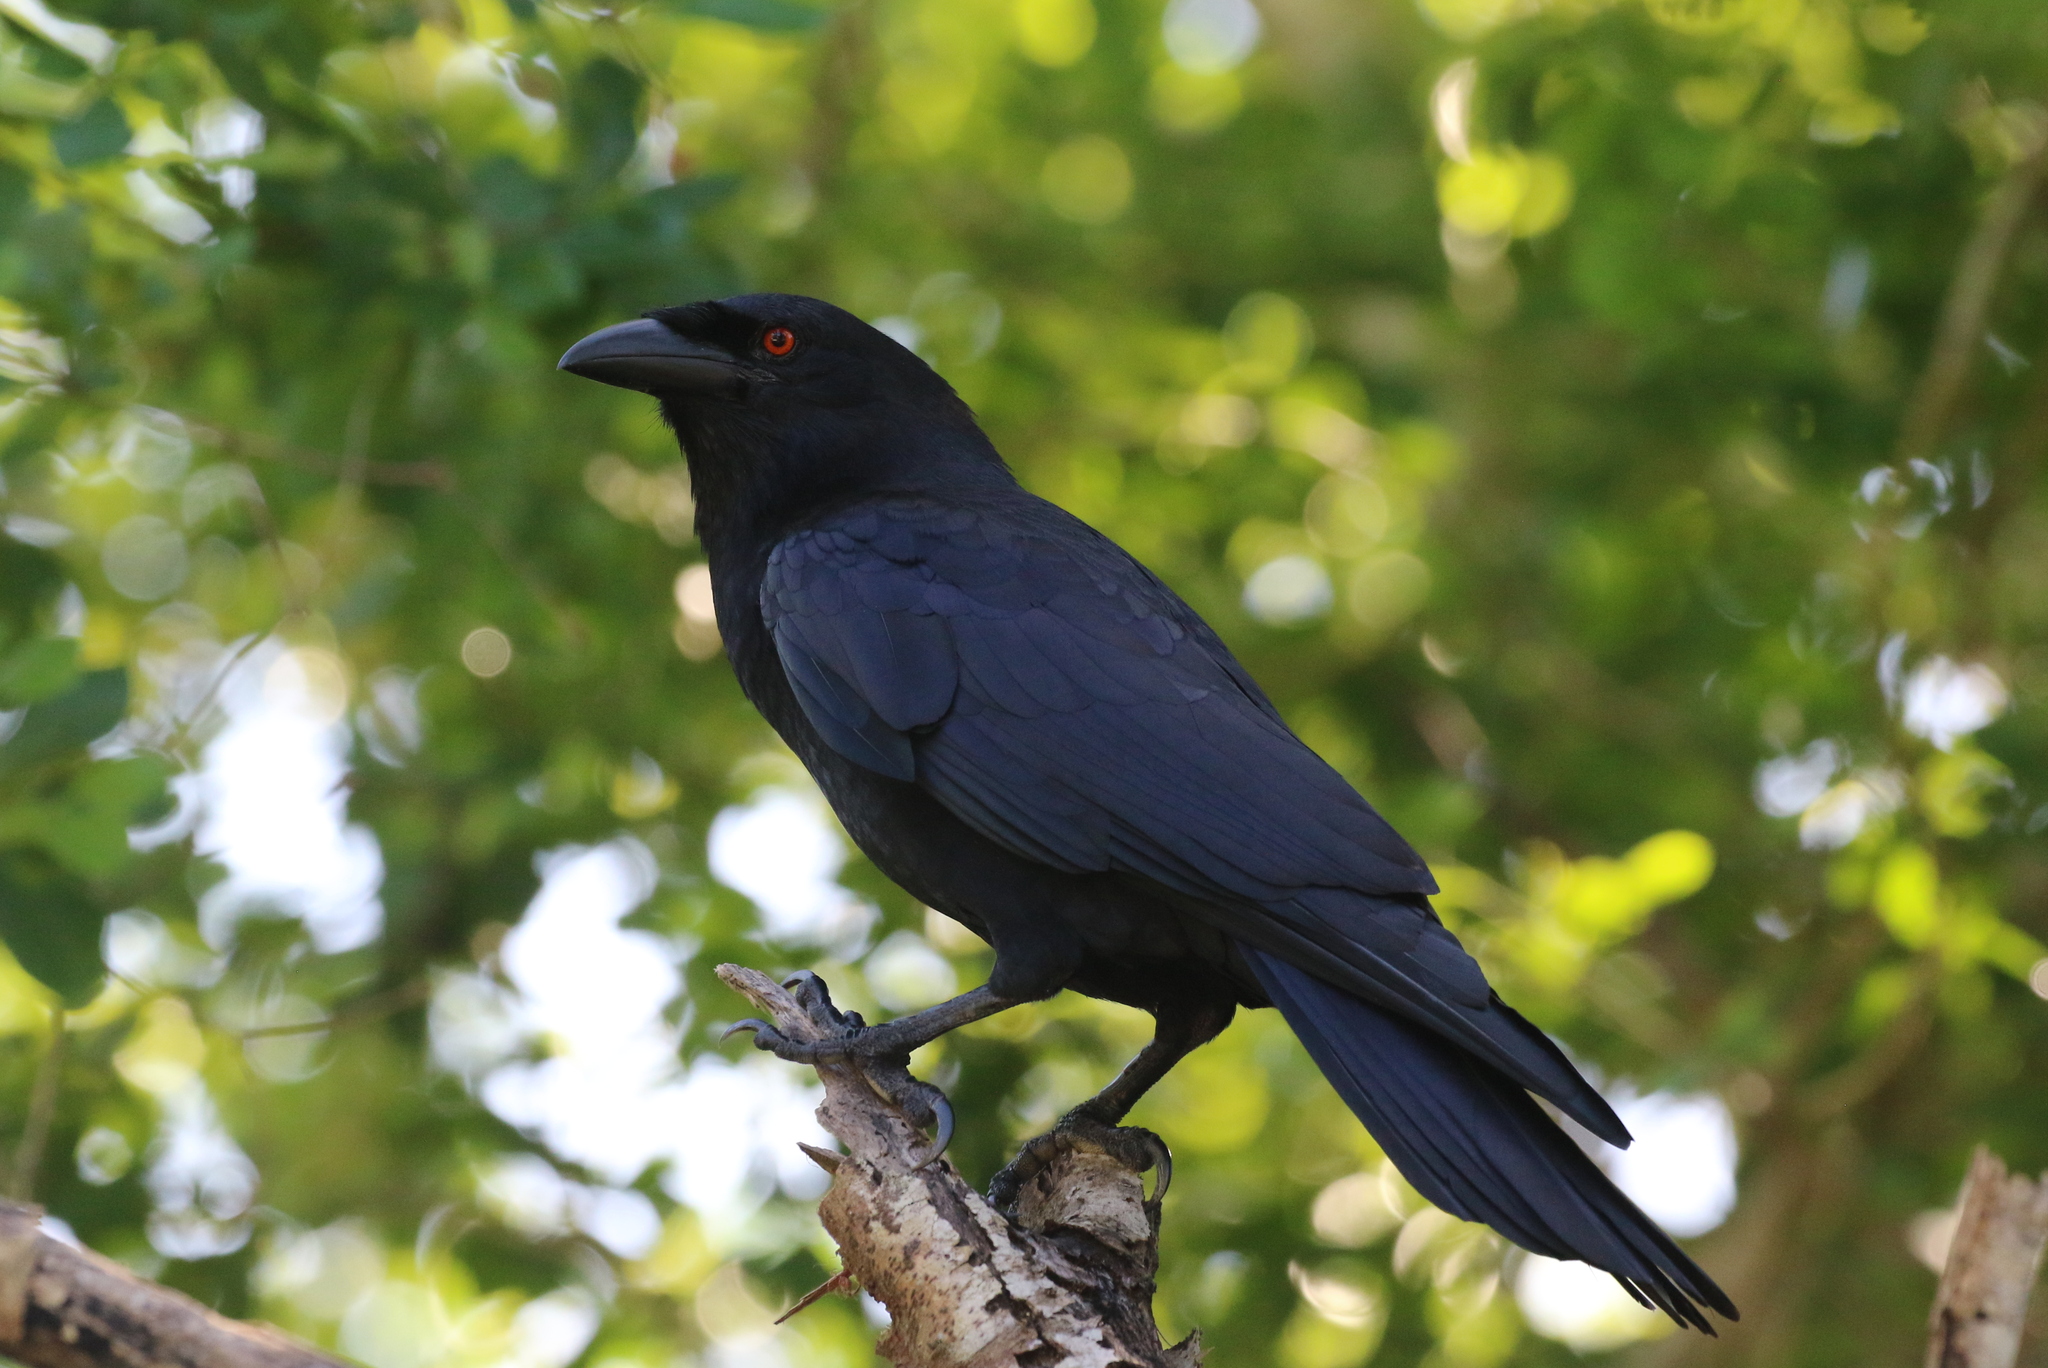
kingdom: Animalia
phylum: Chordata
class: Aves
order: Passeriformes
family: Corvidae
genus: Corvus
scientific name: Corvus leucognaphalus
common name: White-necked crow
